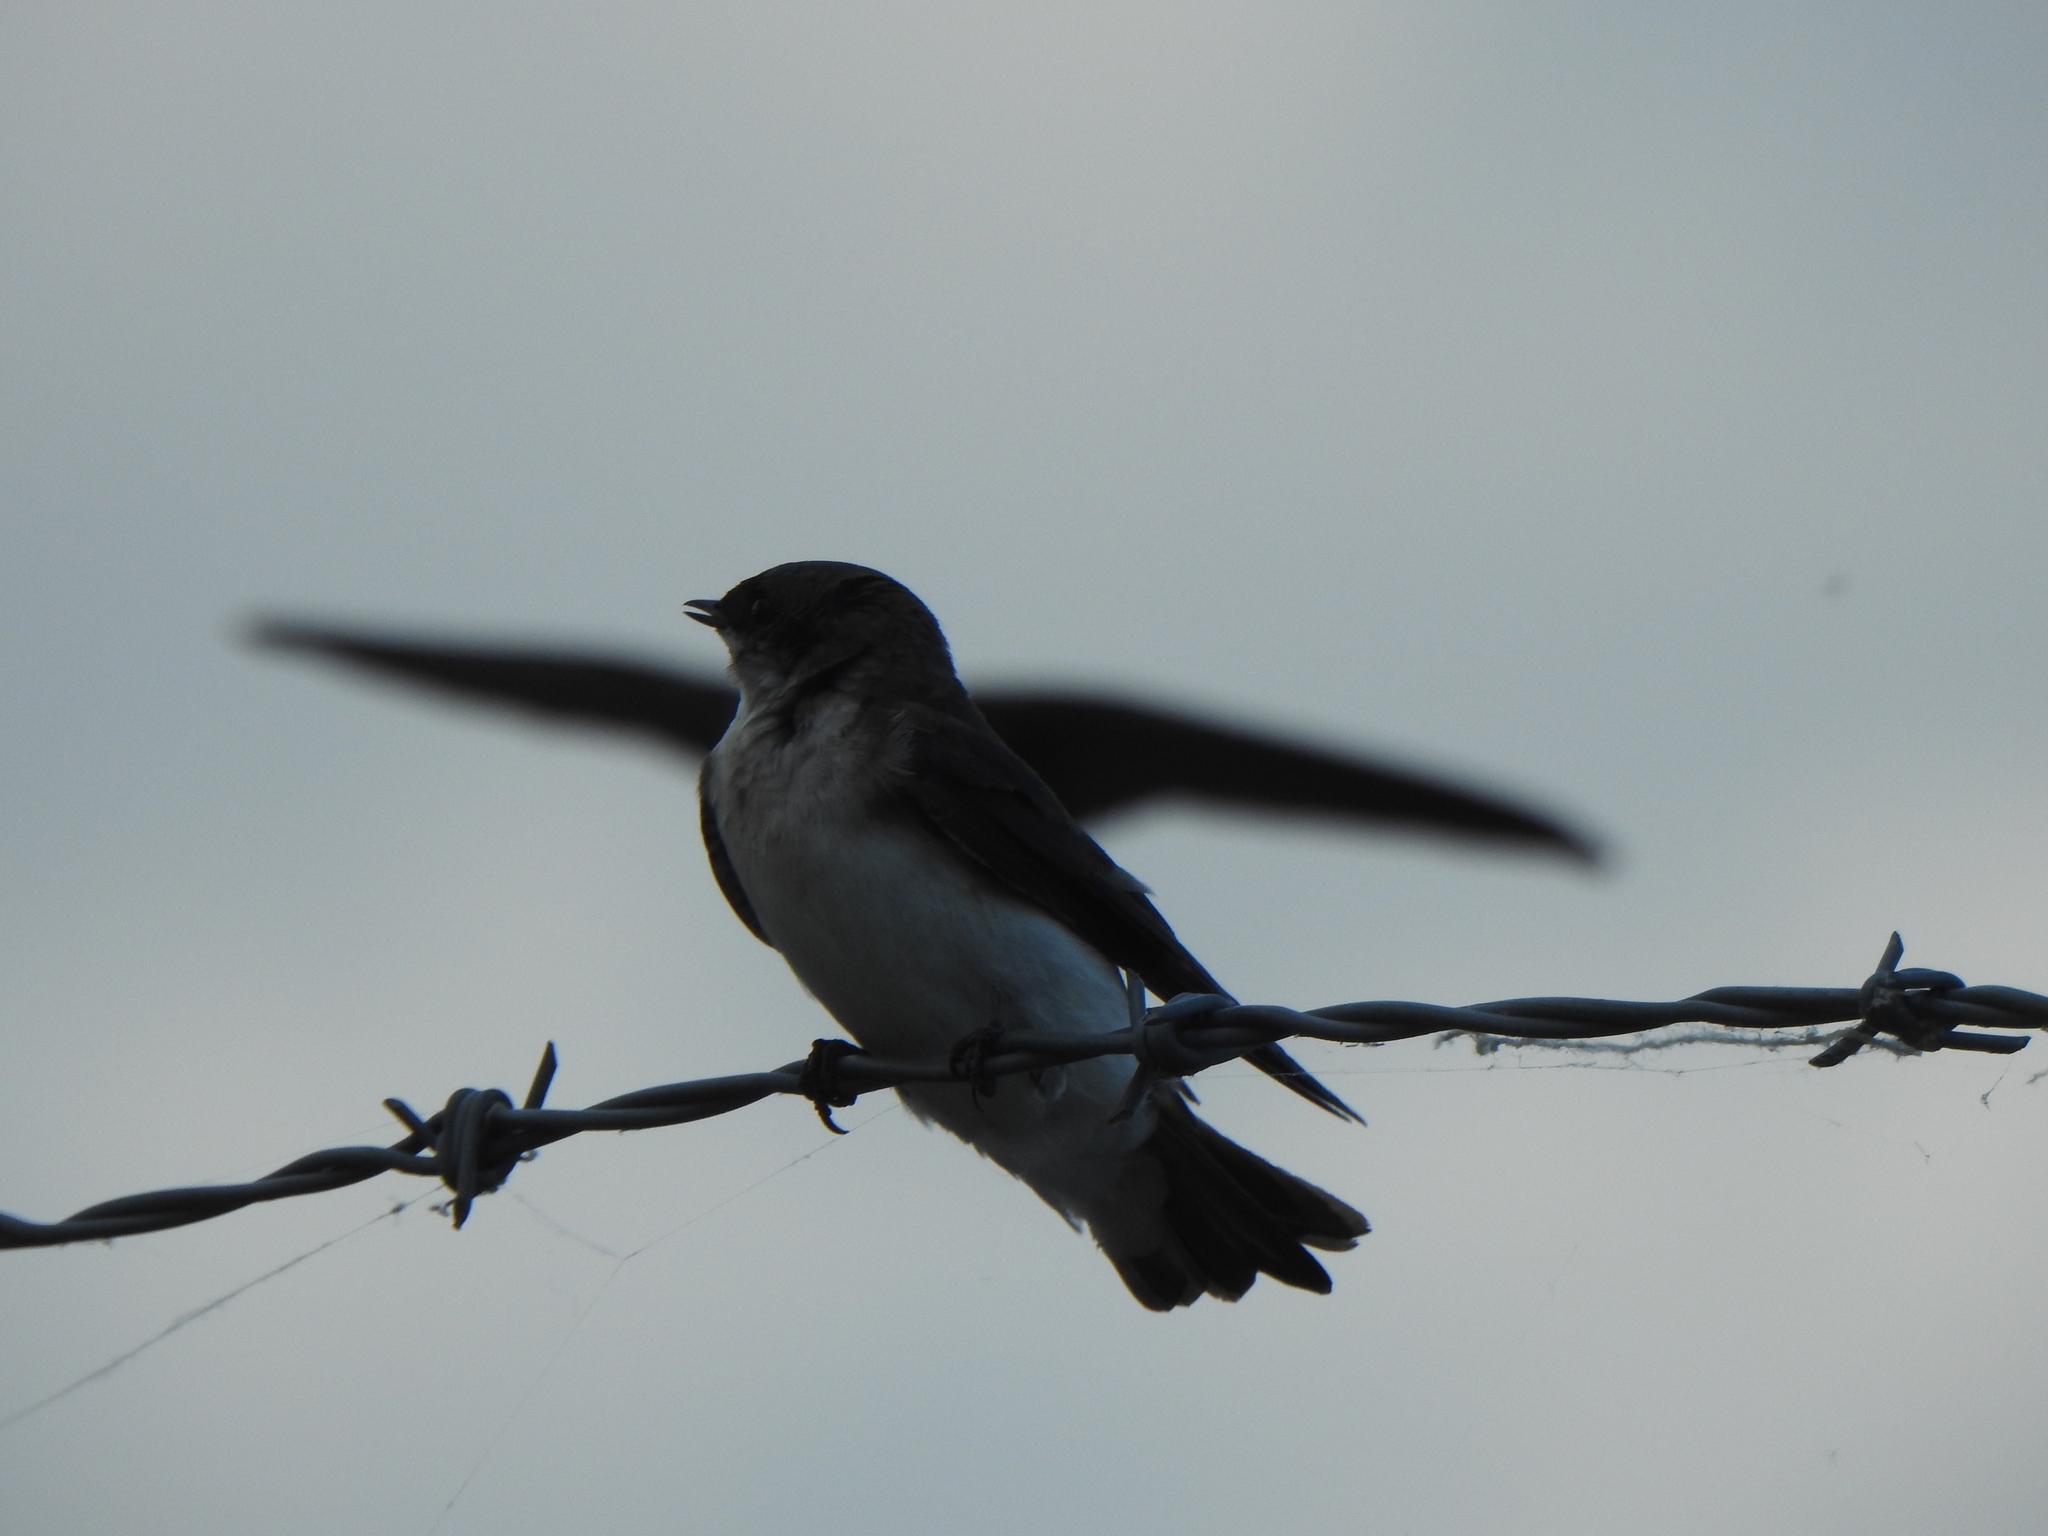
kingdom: Animalia
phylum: Chordata
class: Aves
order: Passeriformes
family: Hirundinidae
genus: Stelgidopteryx
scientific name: Stelgidopteryx serripennis
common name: Northern rough-winged swallow
